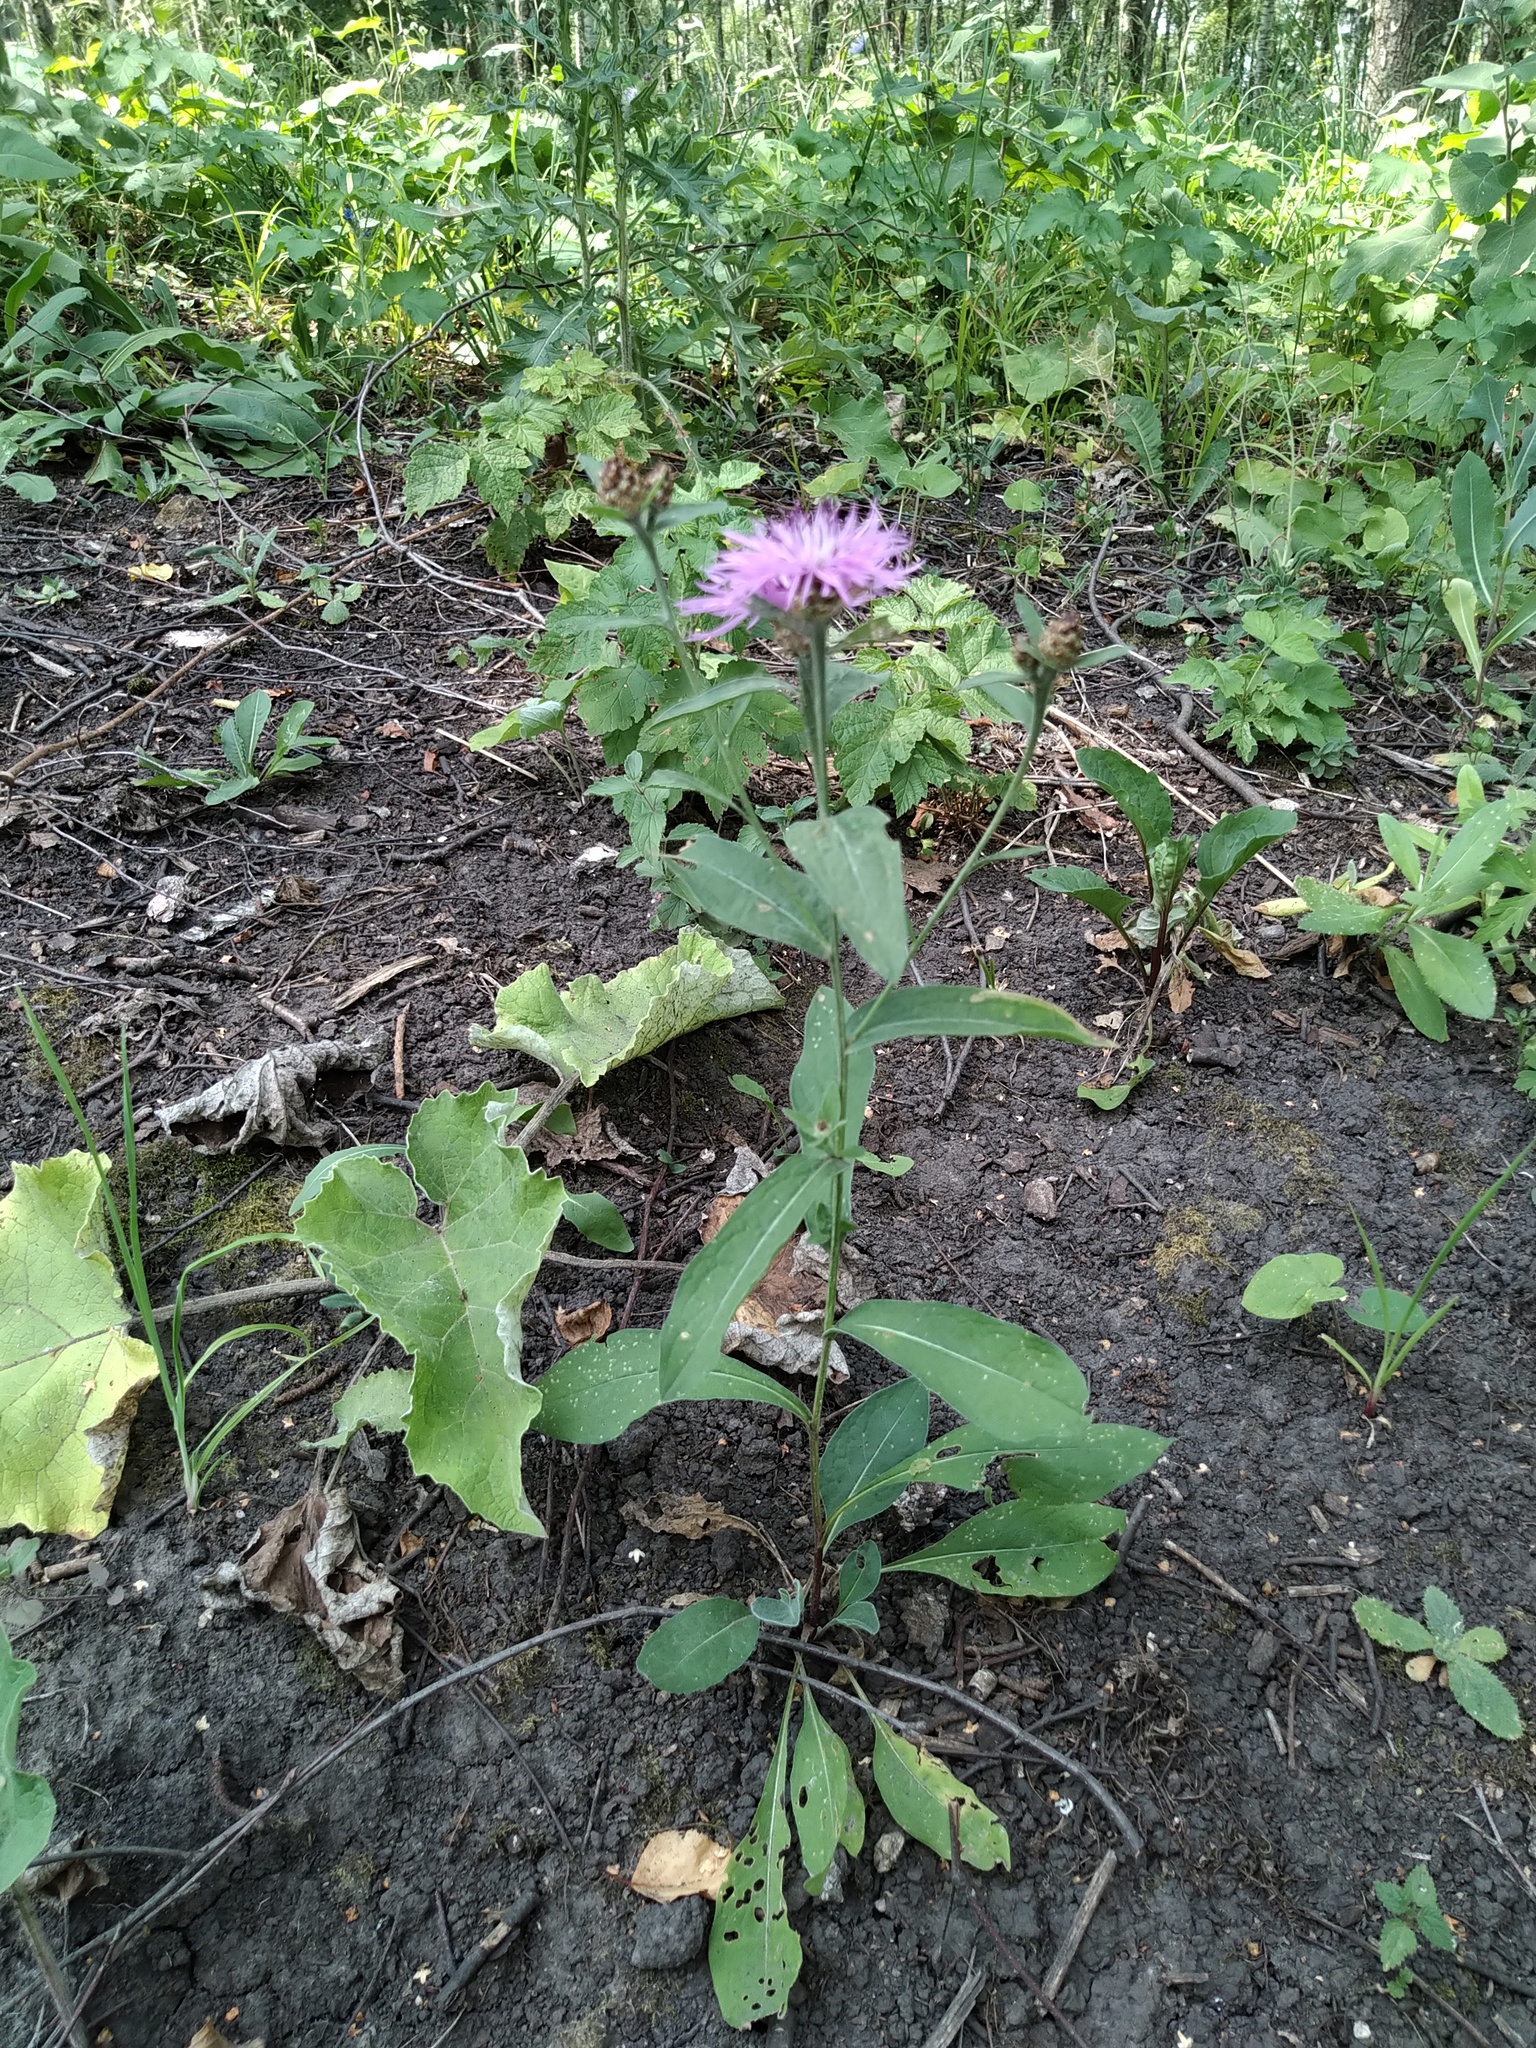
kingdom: Plantae
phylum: Tracheophyta
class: Magnoliopsida
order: Asterales
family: Asteraceae
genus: Centaurea
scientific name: Centaurea jacea
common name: Brown knapweed
